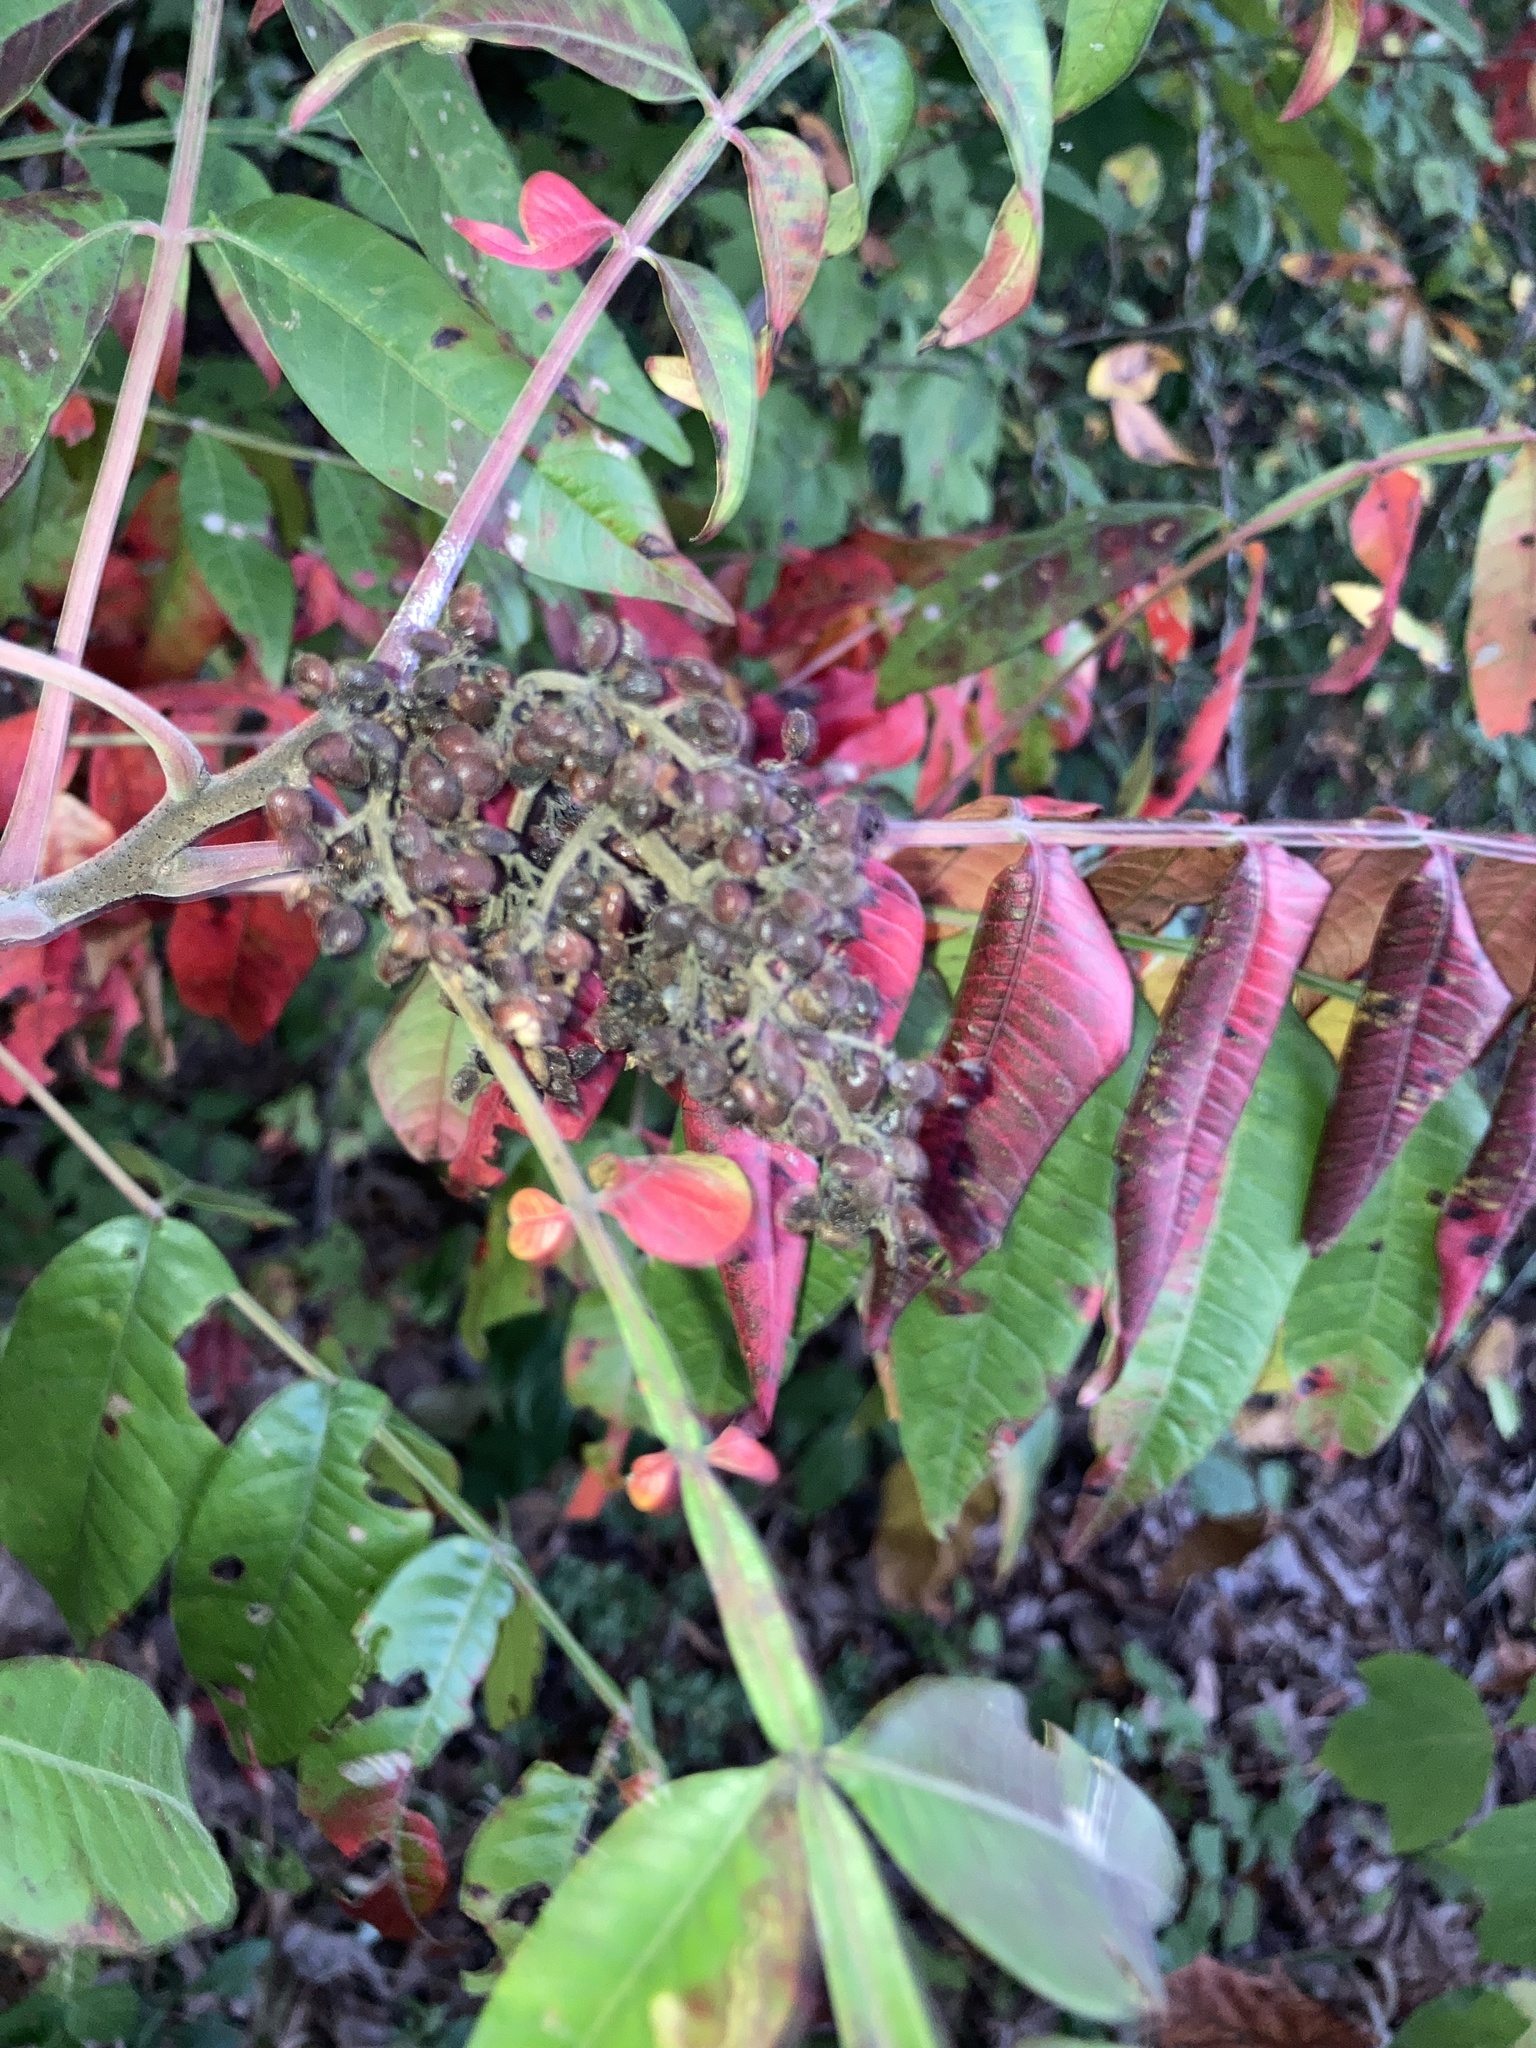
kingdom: Plantae
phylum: Tracheophyta
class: Magnoliopsida
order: Sapindales
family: Anacardiaceae
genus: Rhus
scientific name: Rhus copallina
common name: Shining sumac
